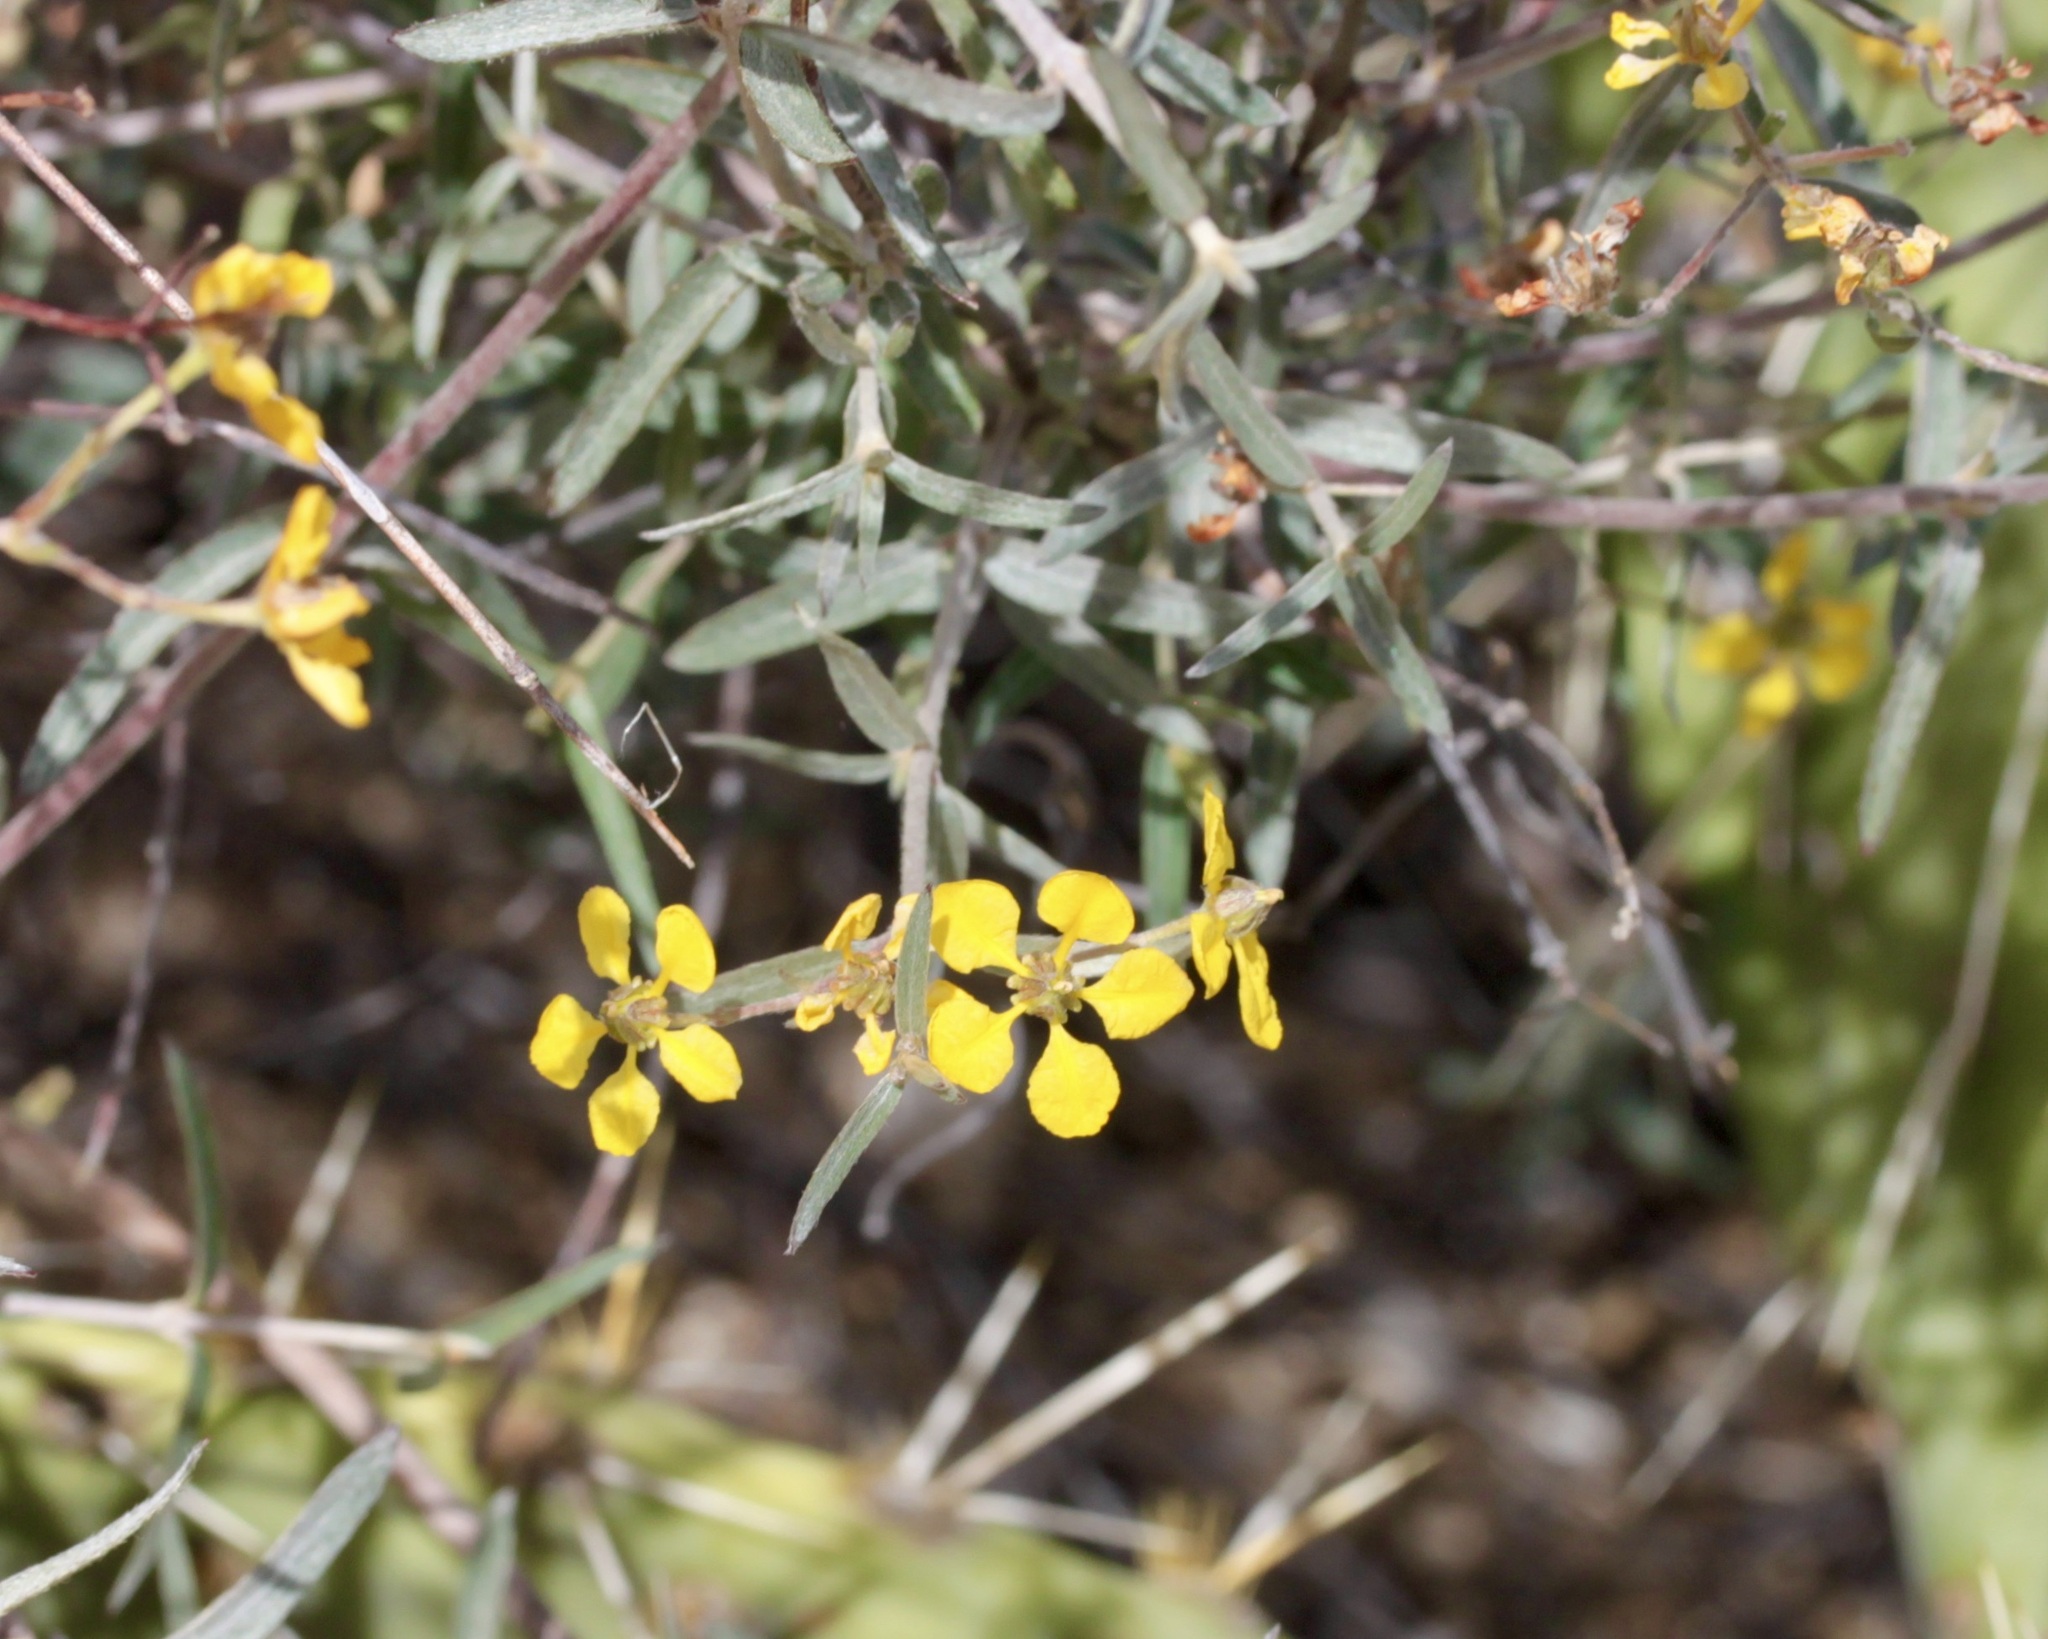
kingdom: Plantae
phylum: Tracheophyta
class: Magnoliopsida
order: Malpighiales
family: Malpighiaceae
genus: Cottsia
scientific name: Cottsia gracilis
